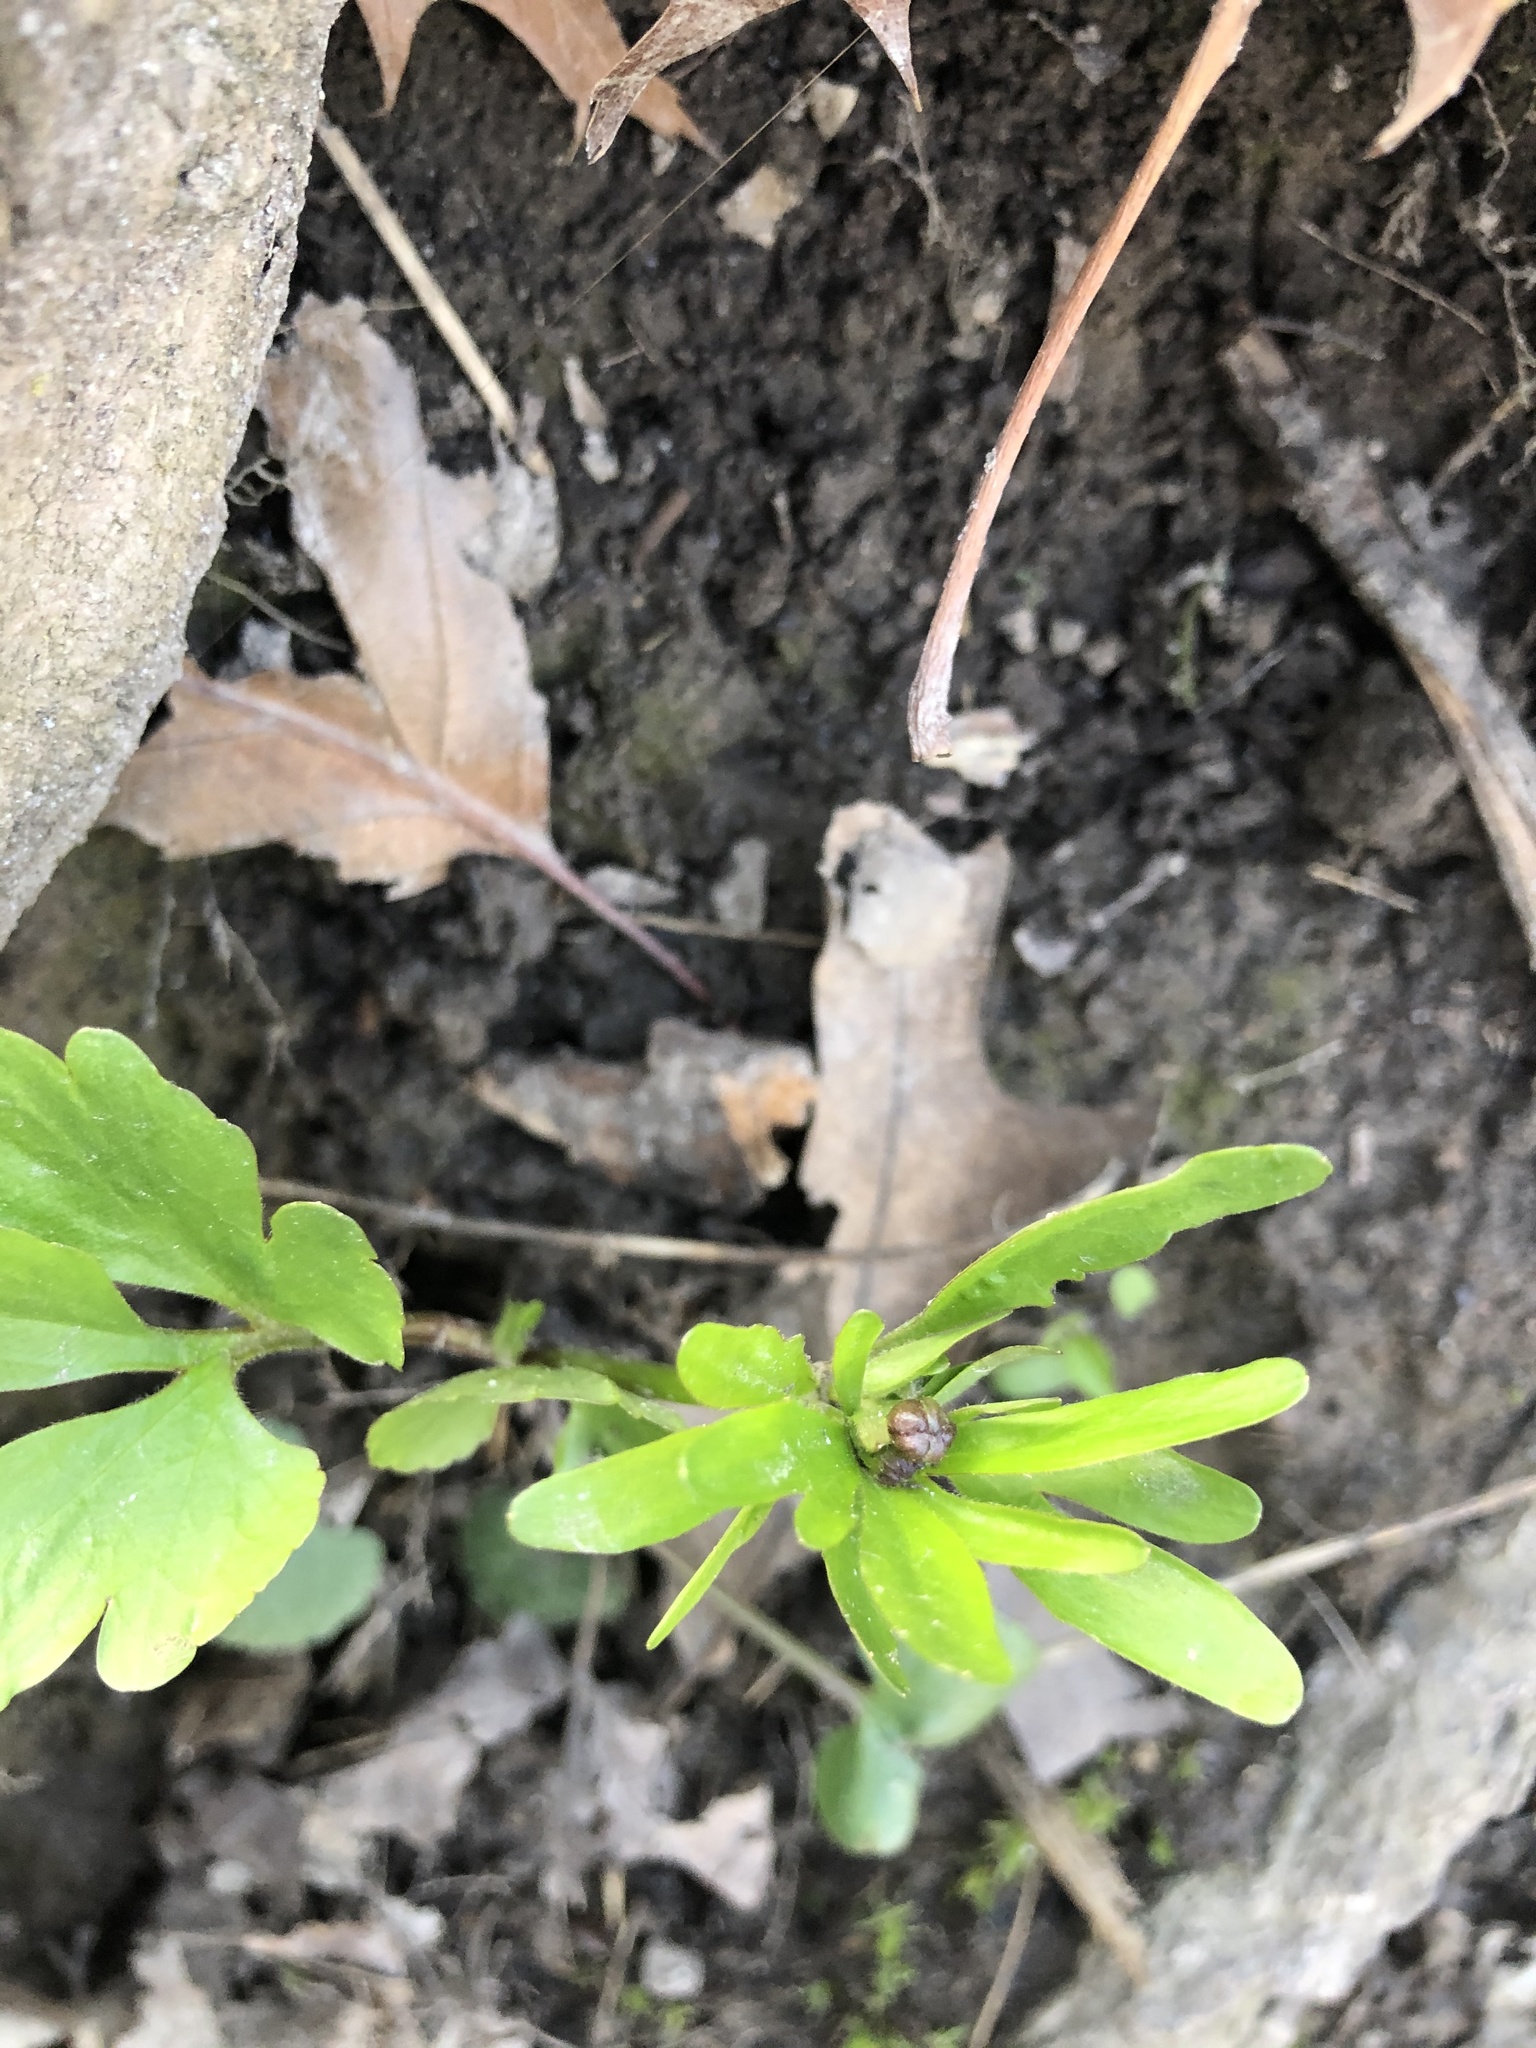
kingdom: Plantae
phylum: Tracheophyta
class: Magnoliopsida
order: Ranunculales
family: Ranunculaceae
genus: Ranunculus
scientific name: Ranunculus abortivus
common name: Early wood buttercup
